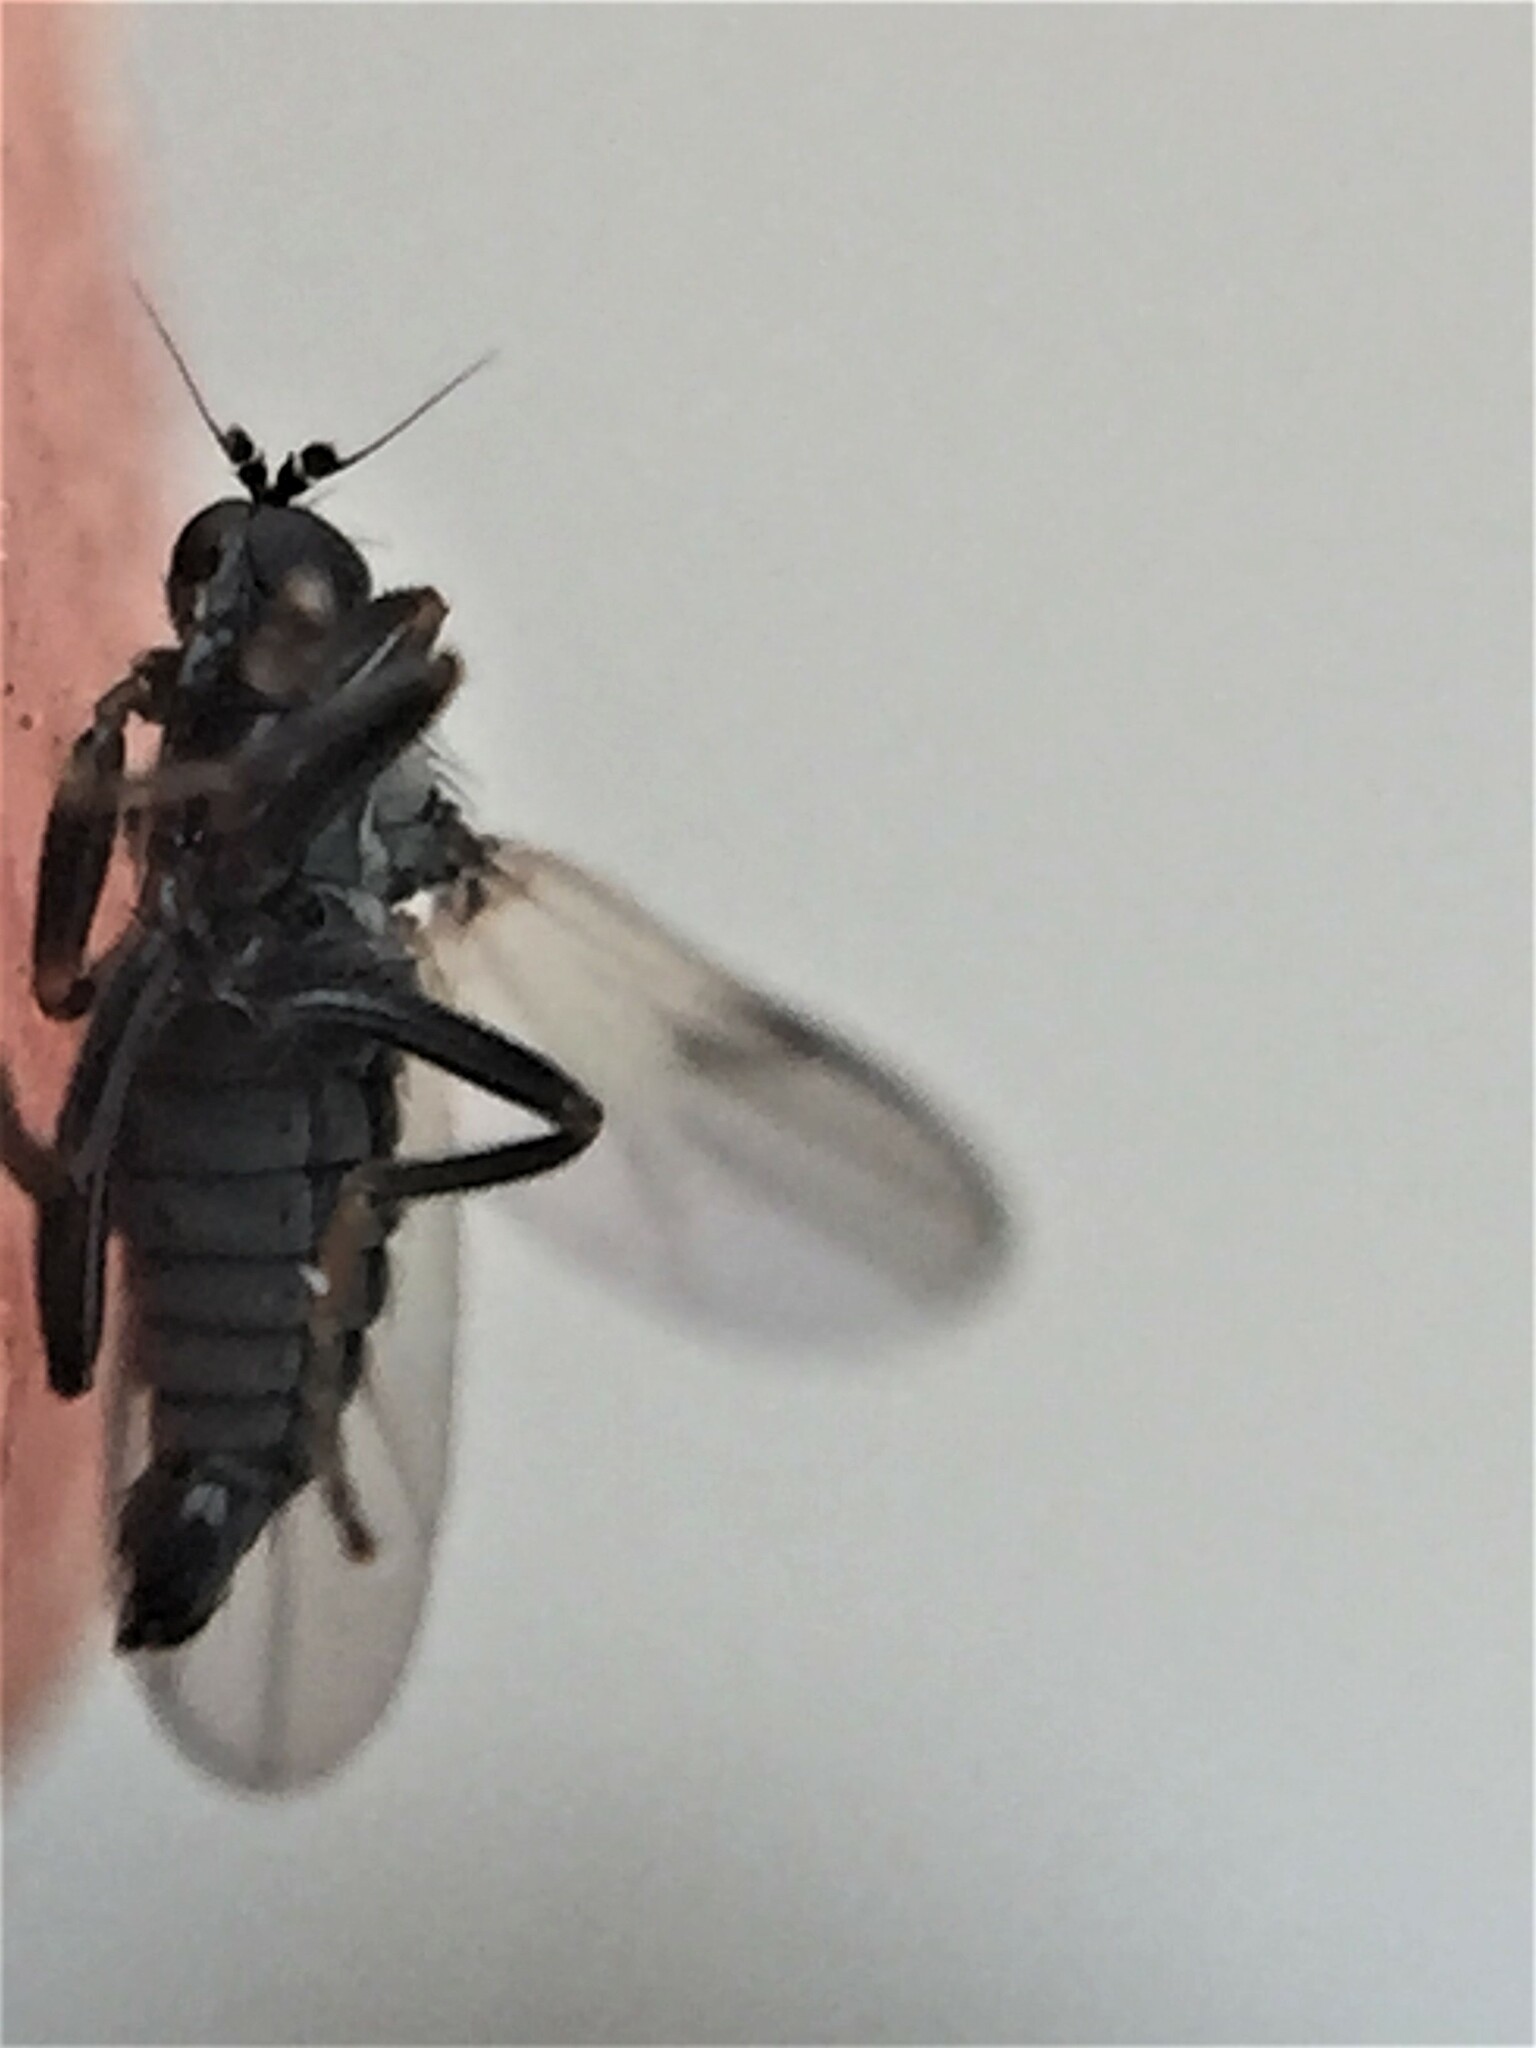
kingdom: Animalia
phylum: Arthropoda
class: Insecta
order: Diptera
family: Hybotidae
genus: Chersodromia
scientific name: Chersodromia zelandica
